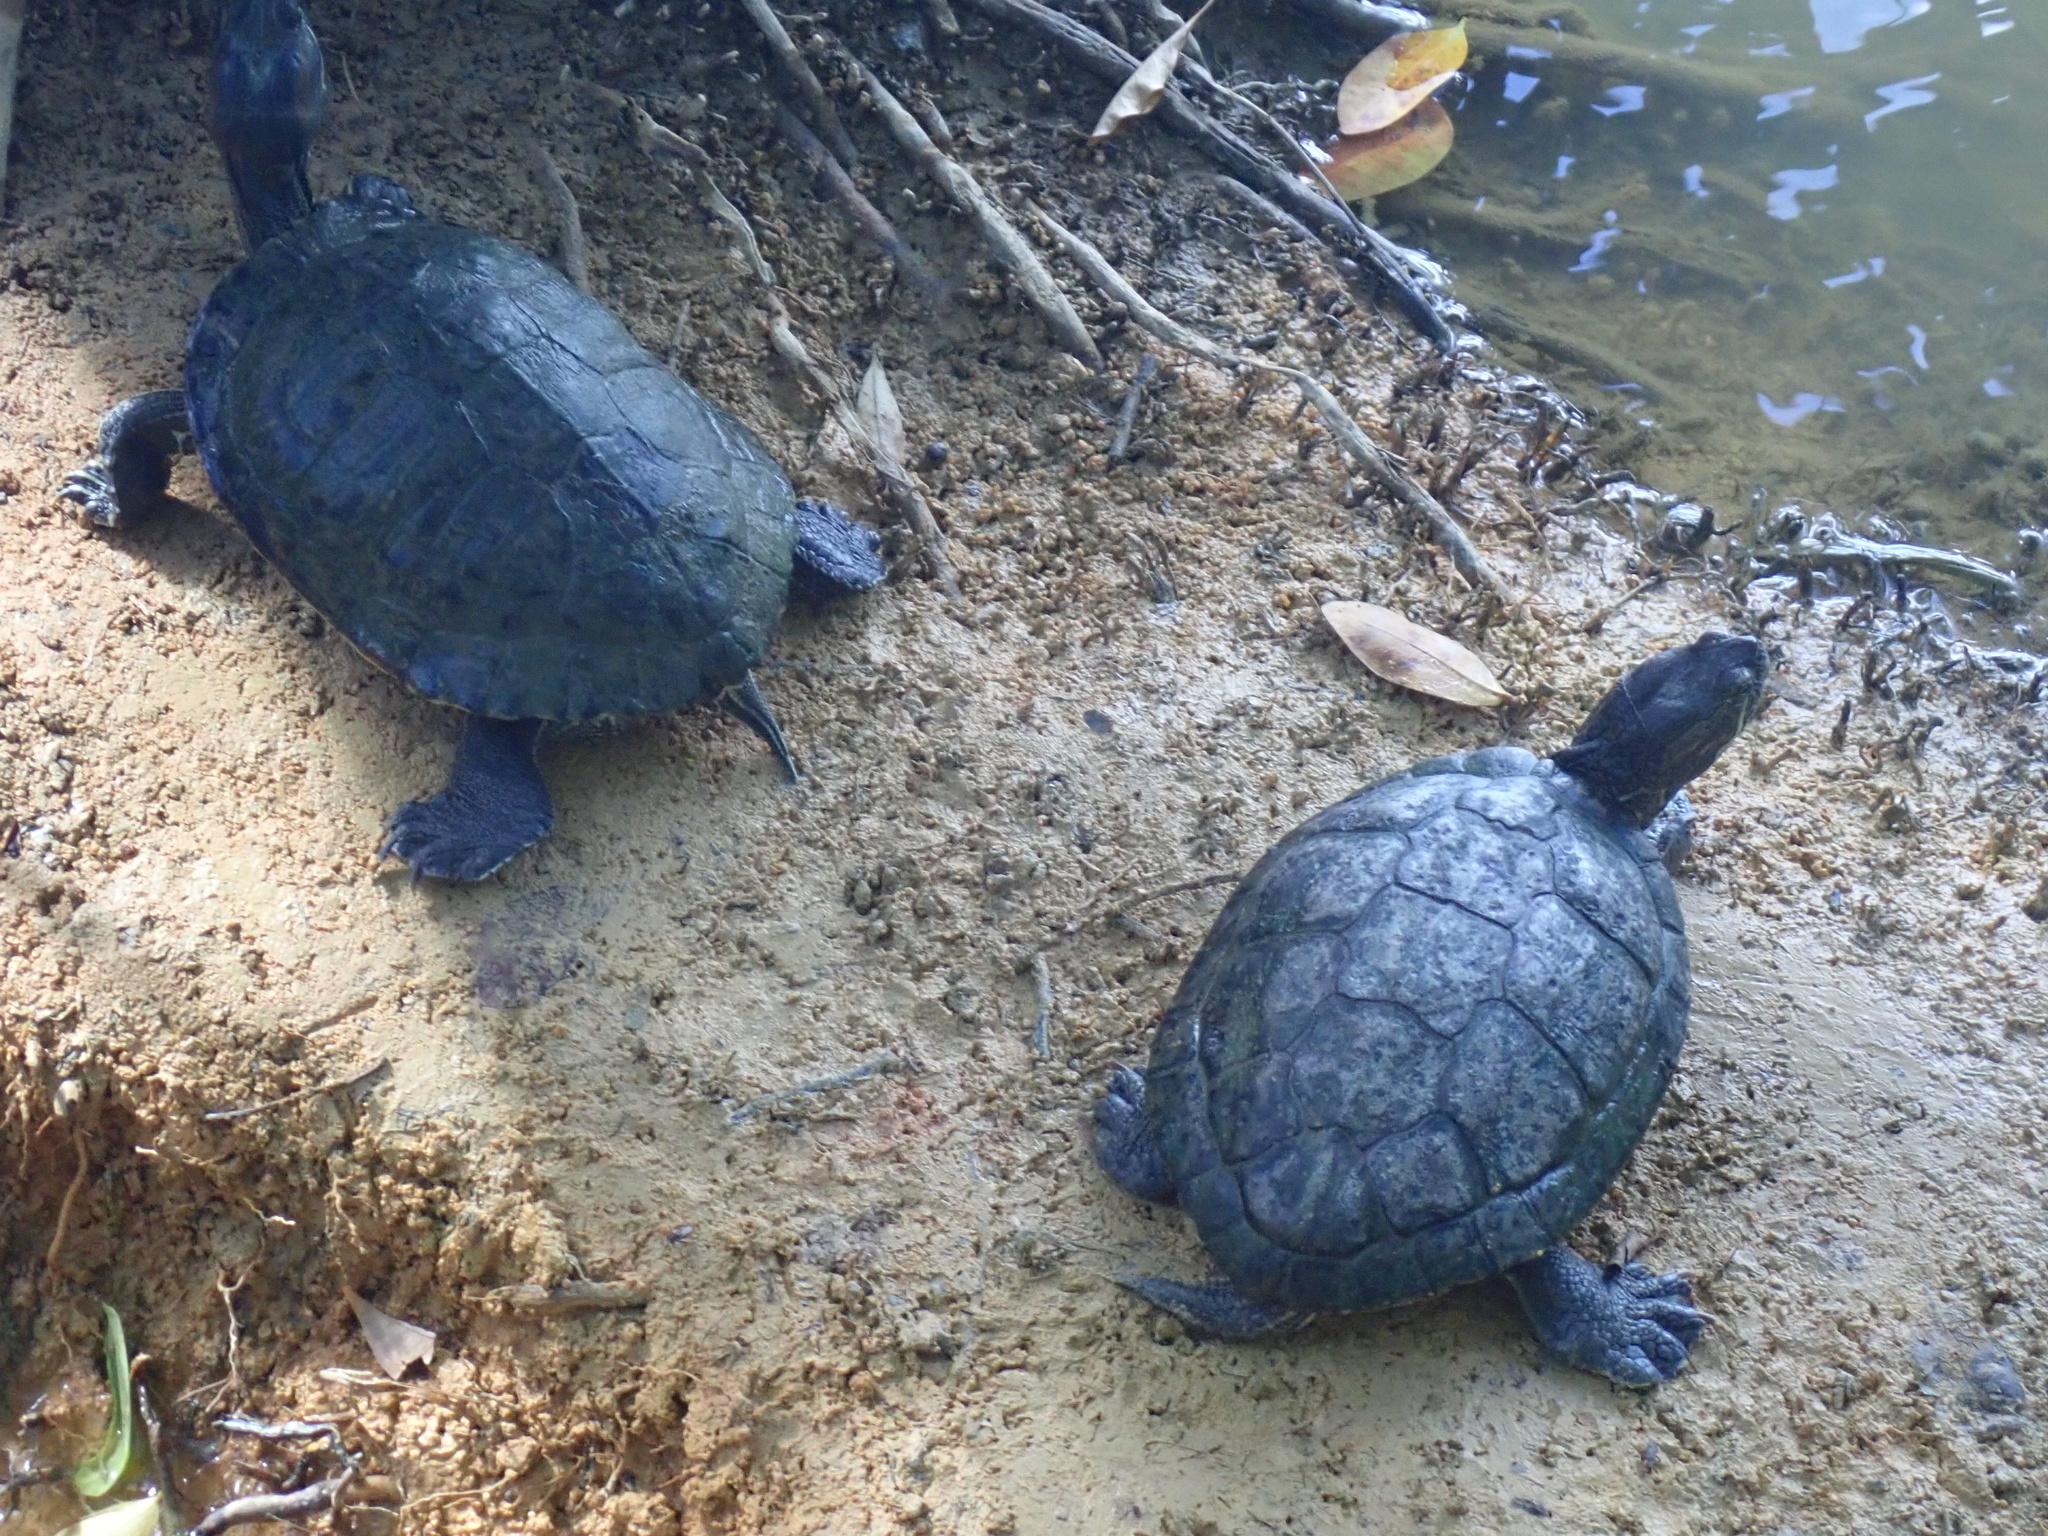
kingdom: Animalia
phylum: Chordata
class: Testudines
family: Emydidae
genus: Trachemys
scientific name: Trachemys scripta
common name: Slider
